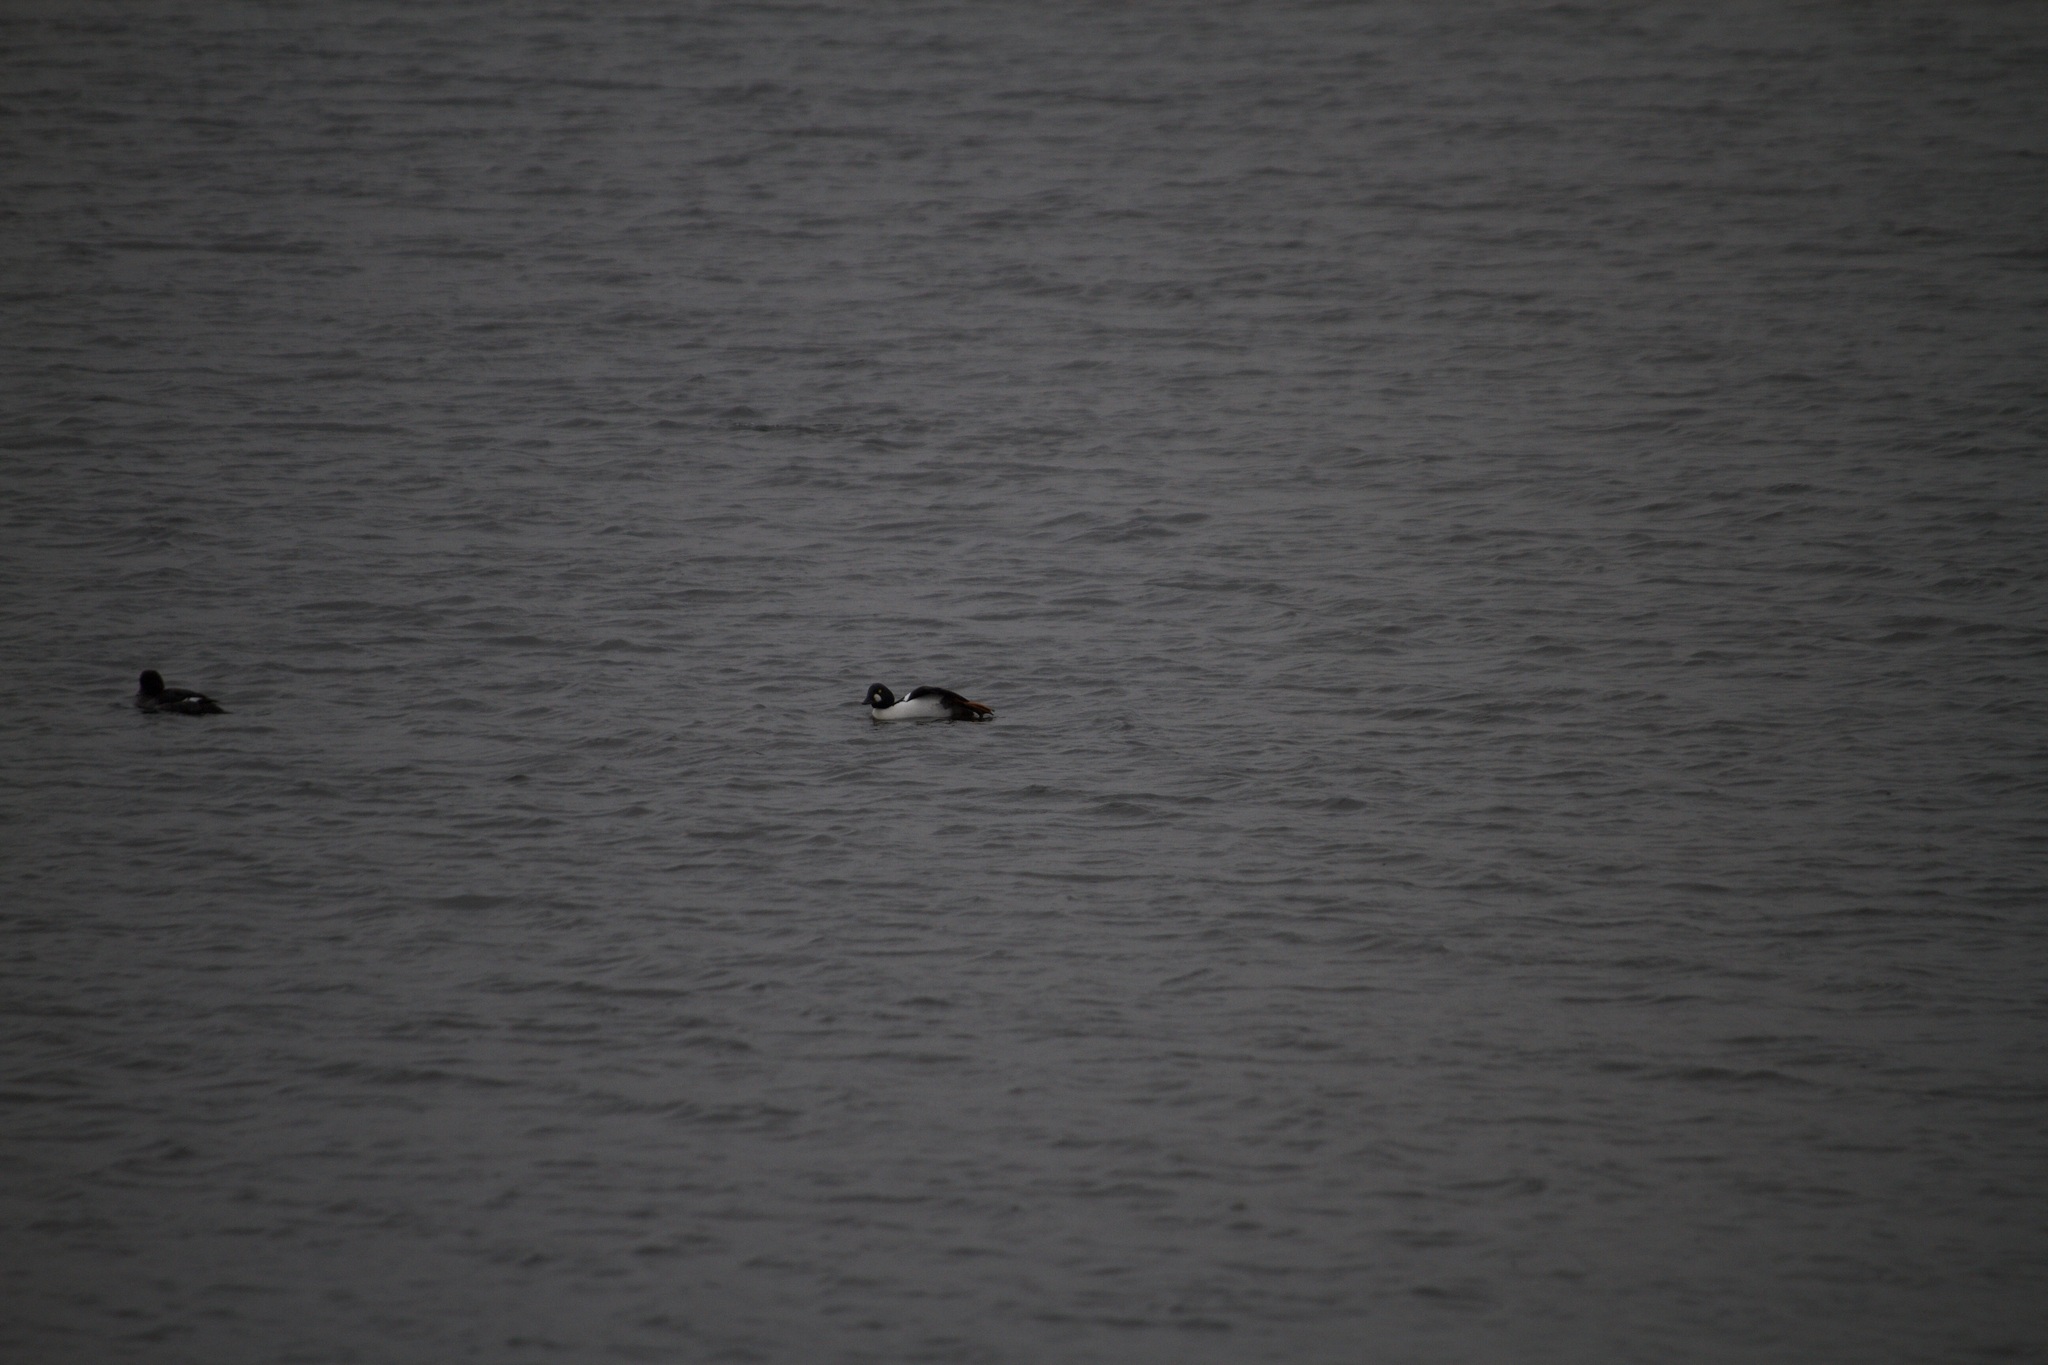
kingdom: Animalia
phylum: Chordata
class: Aves
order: Anseriformes
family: Anatidae
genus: Bucephala
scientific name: Bucephala clangula
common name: Common goldeneye
